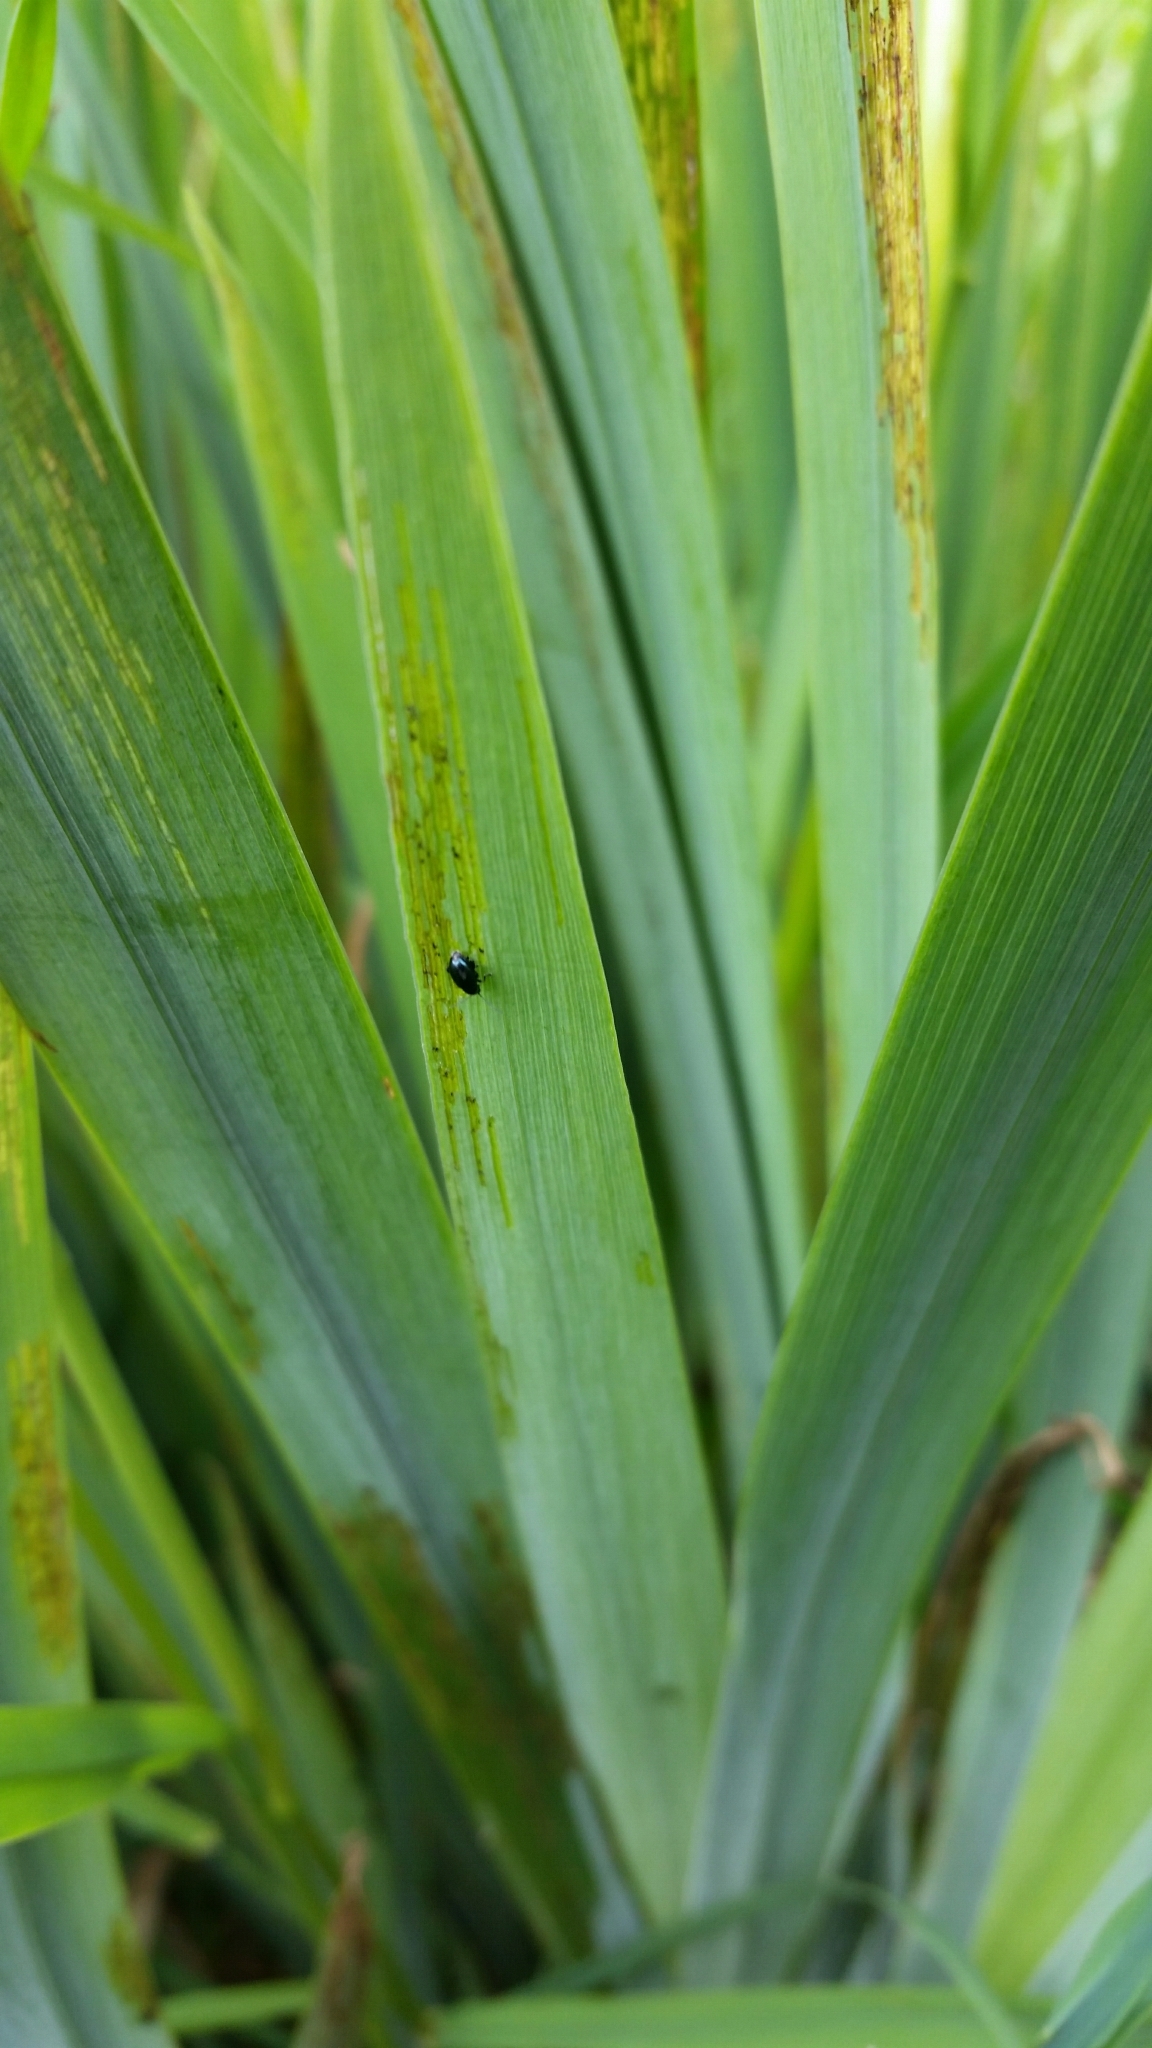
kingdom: Animalia
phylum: Arthropoda
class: Insecta
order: Coleoptera
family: Chrysomelidae
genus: Aphthona
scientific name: Aphthona nonstriata
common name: Iris flea beetle
